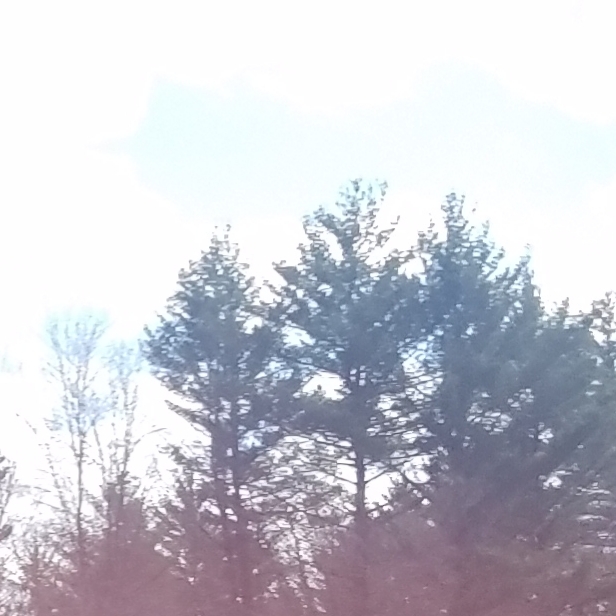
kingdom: Plantae
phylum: Tracheophyta
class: Pinopsida
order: Pinales
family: Pinaceae
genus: Pinus
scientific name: Pinus strobus
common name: Weymouth pine
